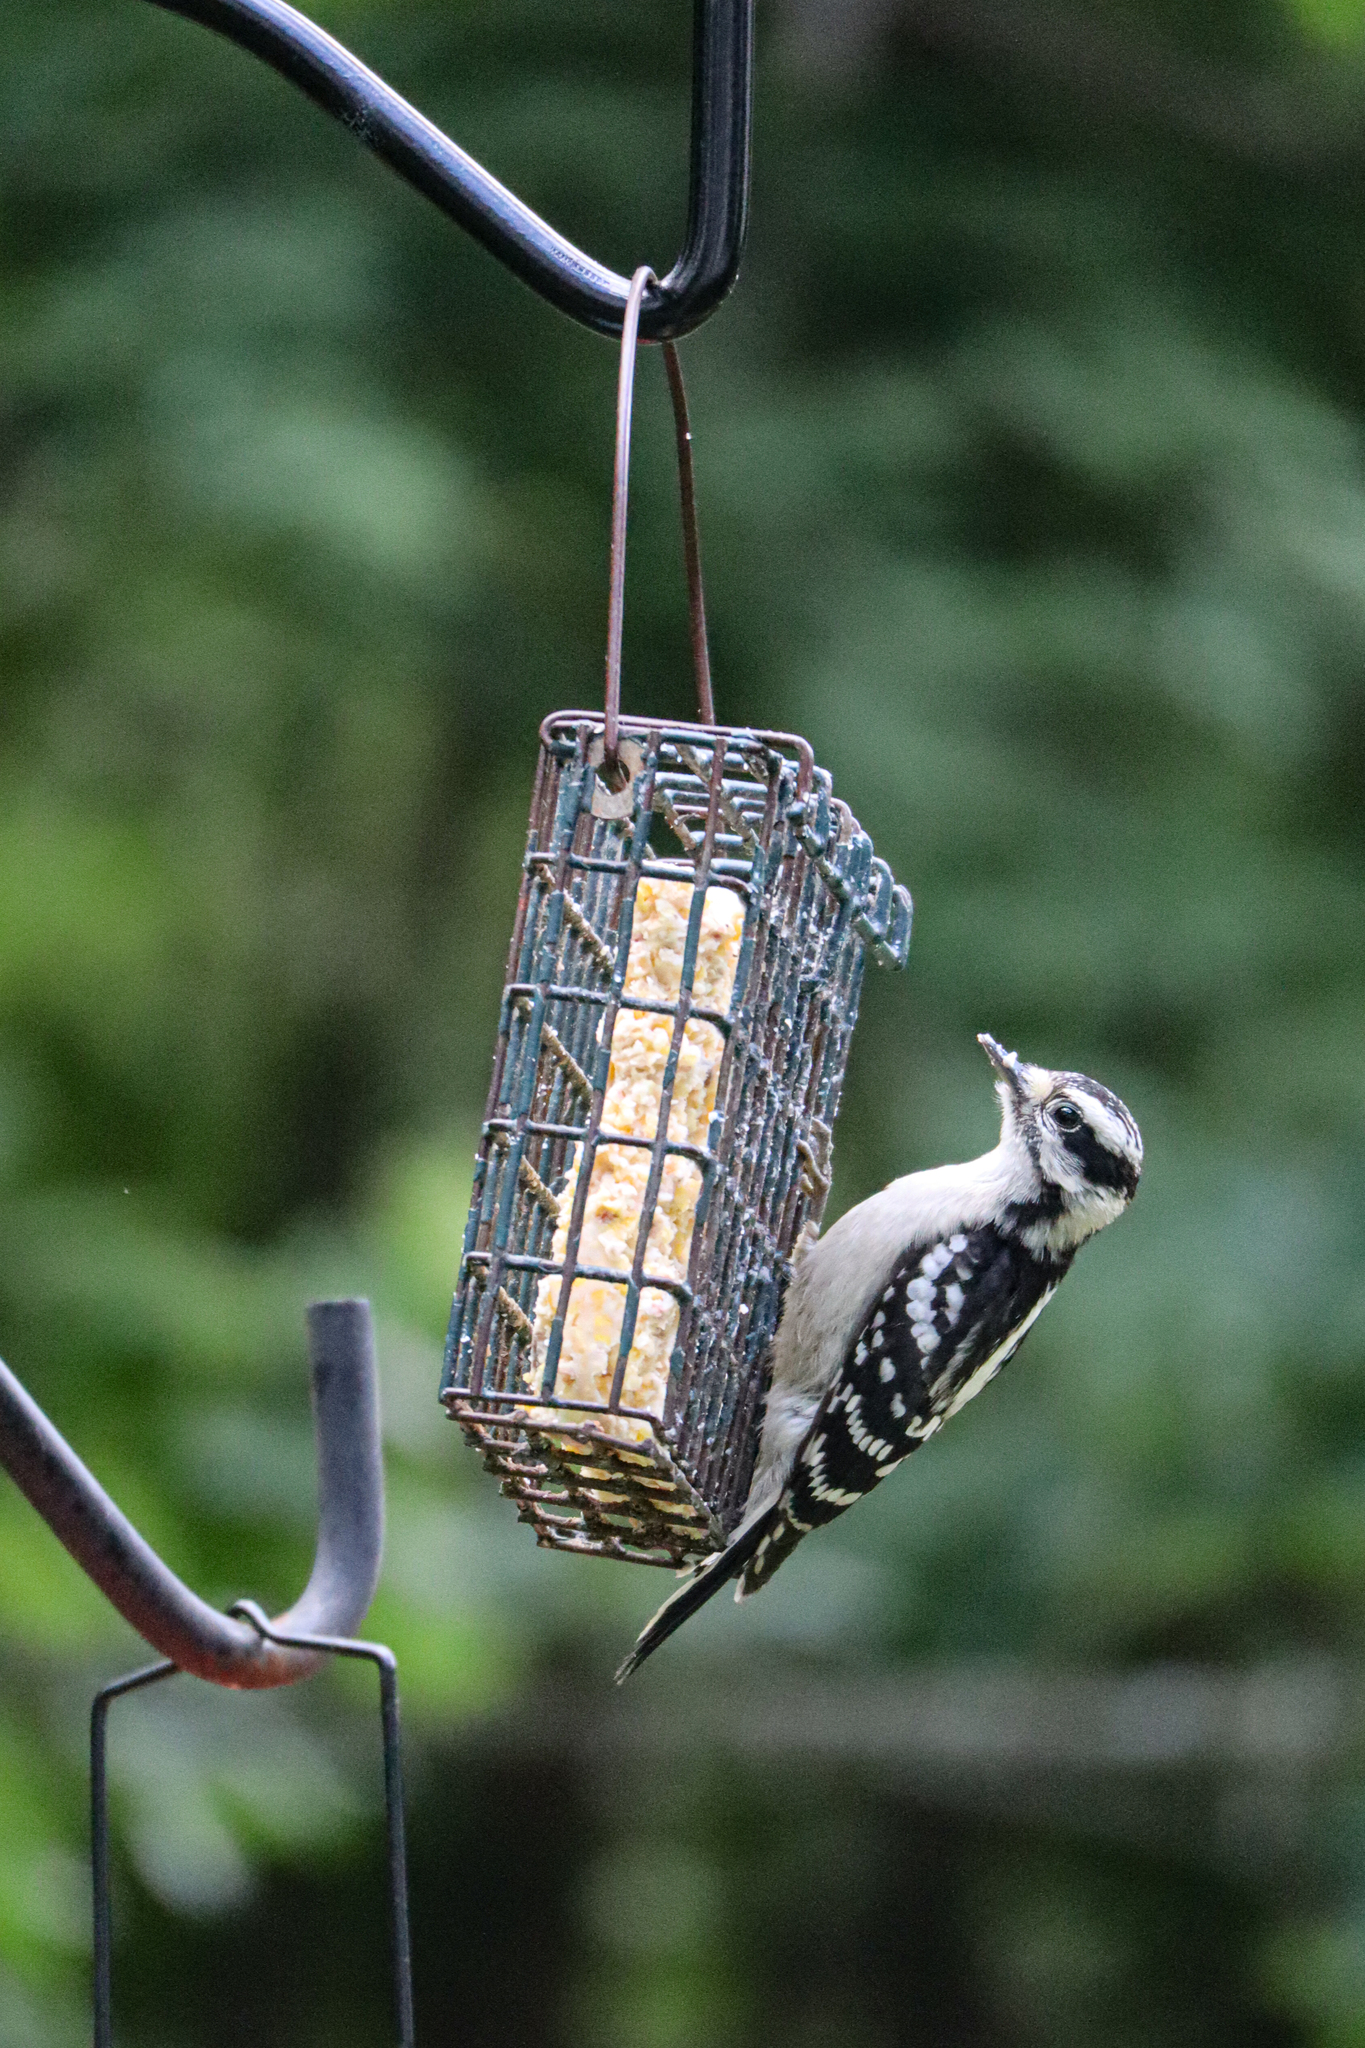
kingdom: Animalia
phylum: Chordata
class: Aves
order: Piciformes
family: Picidae
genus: Dryobates
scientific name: Dryobates pubescens
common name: Downy woodpecker
